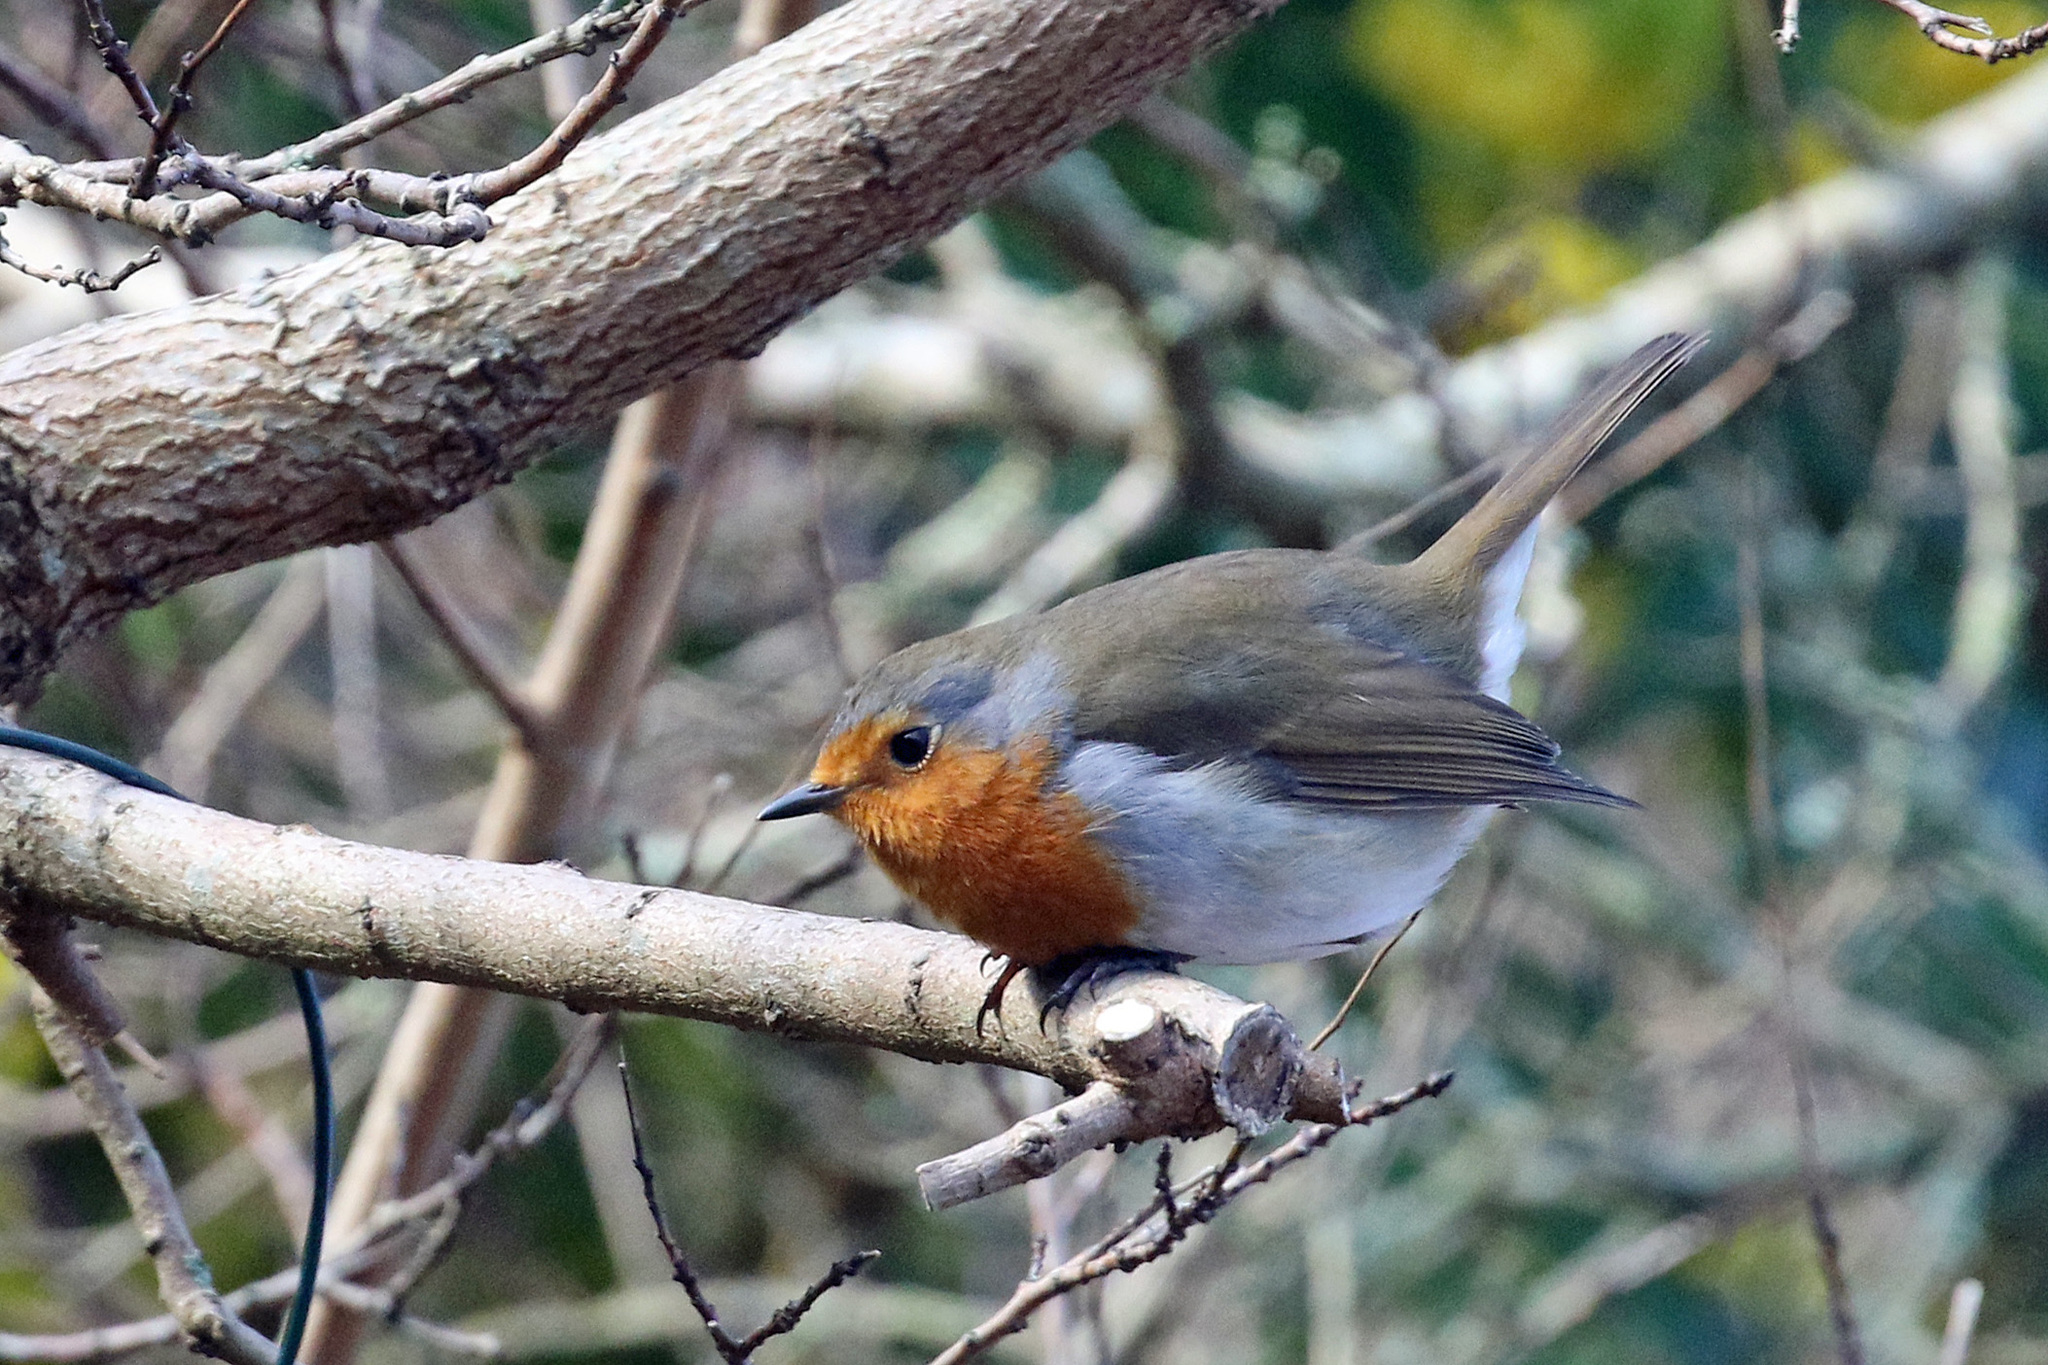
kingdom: Animalia
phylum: Chordata
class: Aves
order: Passeriformes
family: Muscicapidae
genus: Erithacus
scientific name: Erithacus rubecula
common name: European robin
